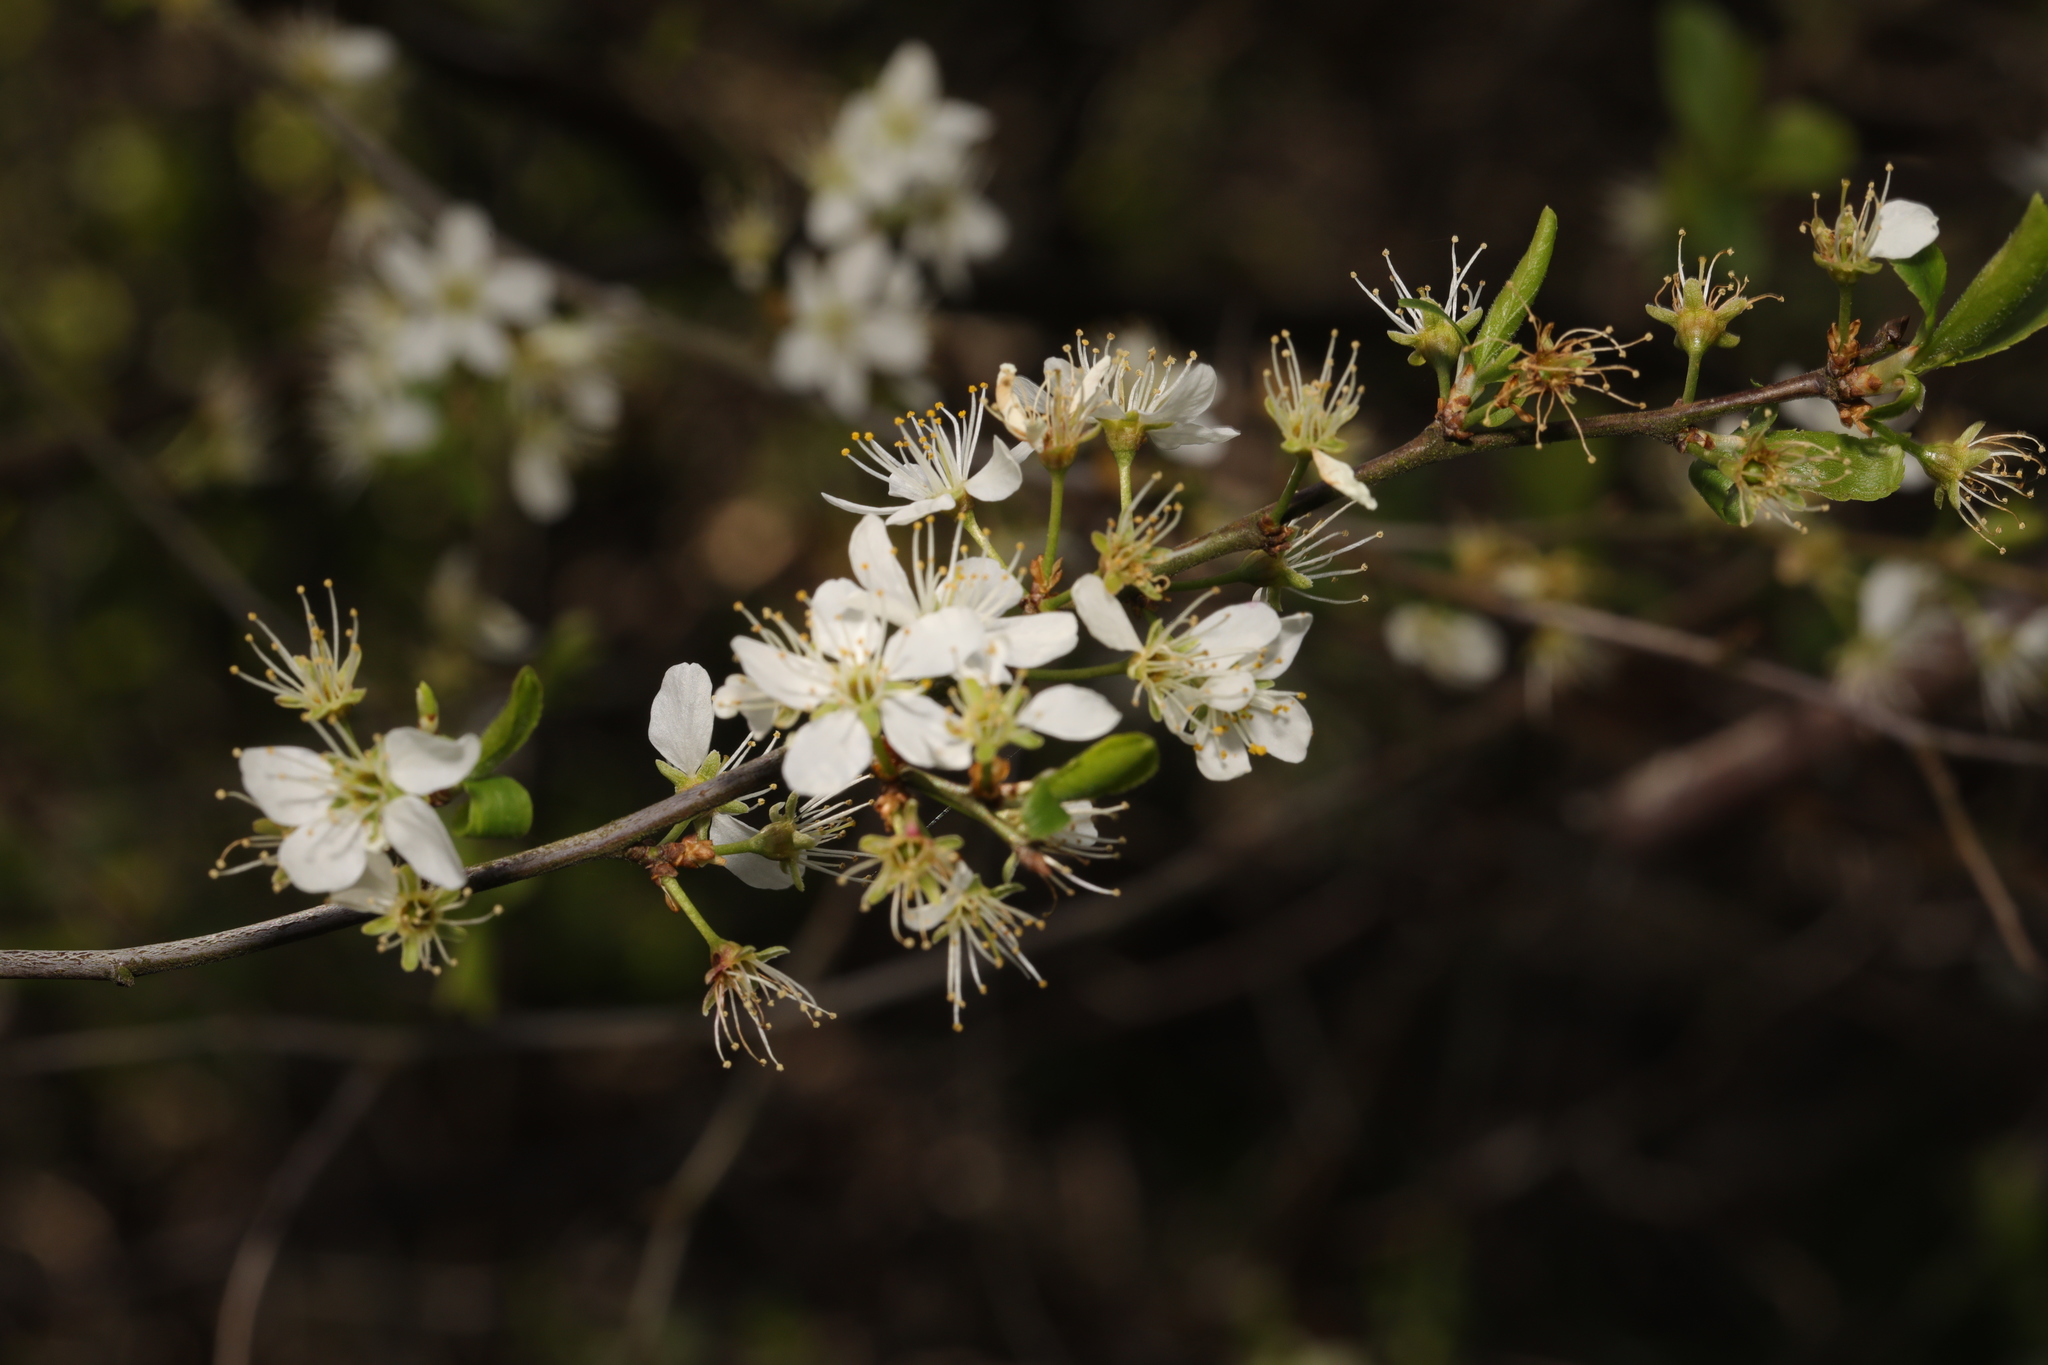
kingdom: Plantae
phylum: Tracheophyta
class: Magnoliopsida
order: Rosales
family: Rosaceae
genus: Prunus
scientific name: Prunus spinosa
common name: Blackthorn
